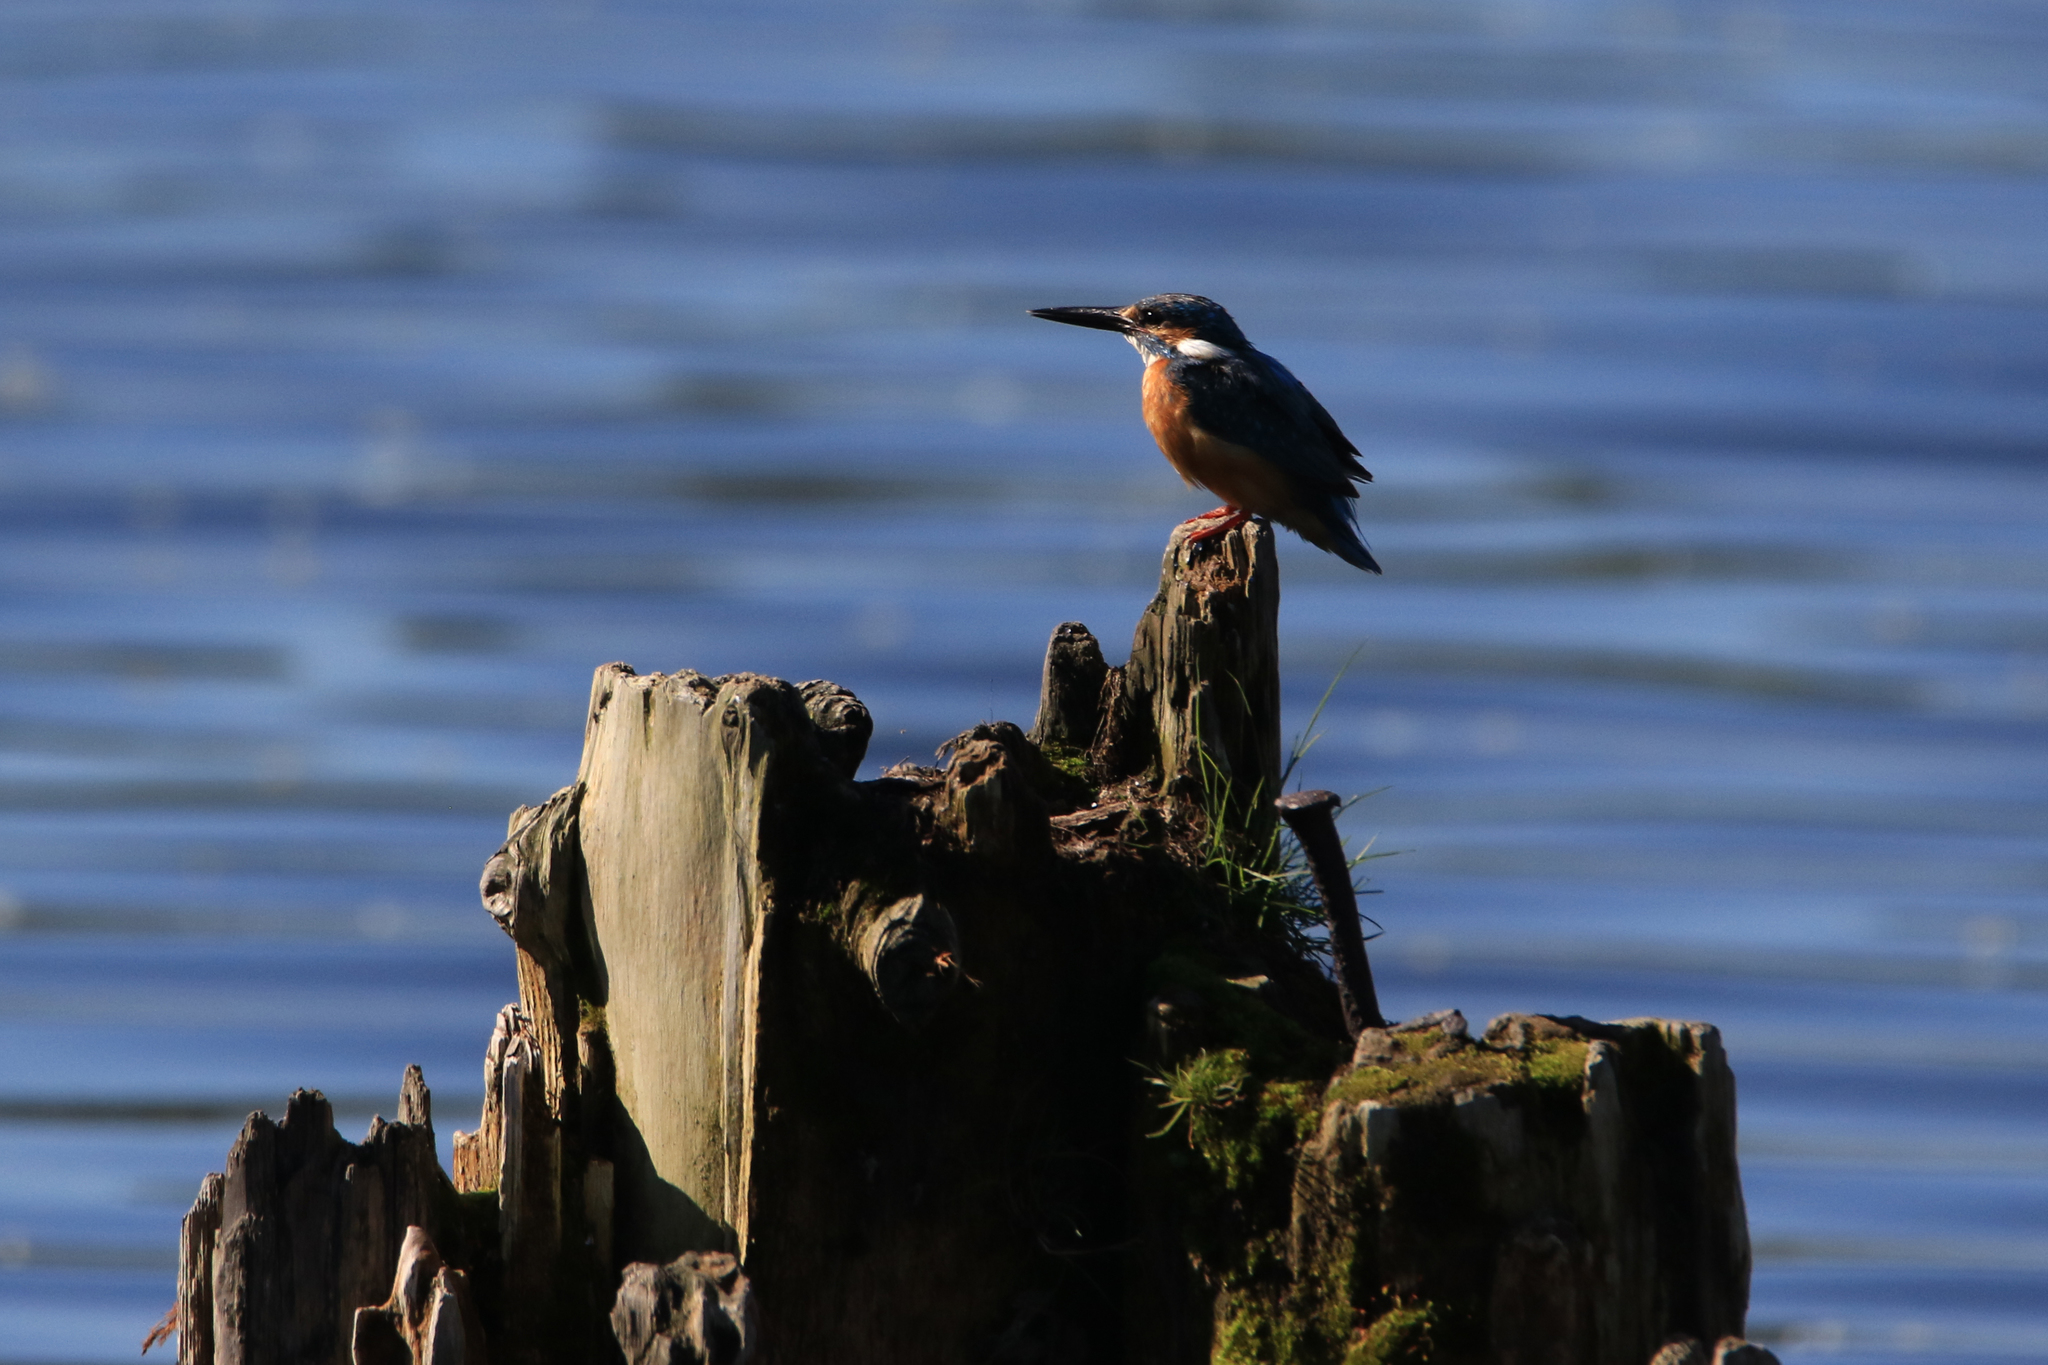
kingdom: Animalia
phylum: Chordata
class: Aves
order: Coraciiformes
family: Alcedinidae
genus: Alcedo
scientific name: Alcedo atthis
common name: Common kingfisher
